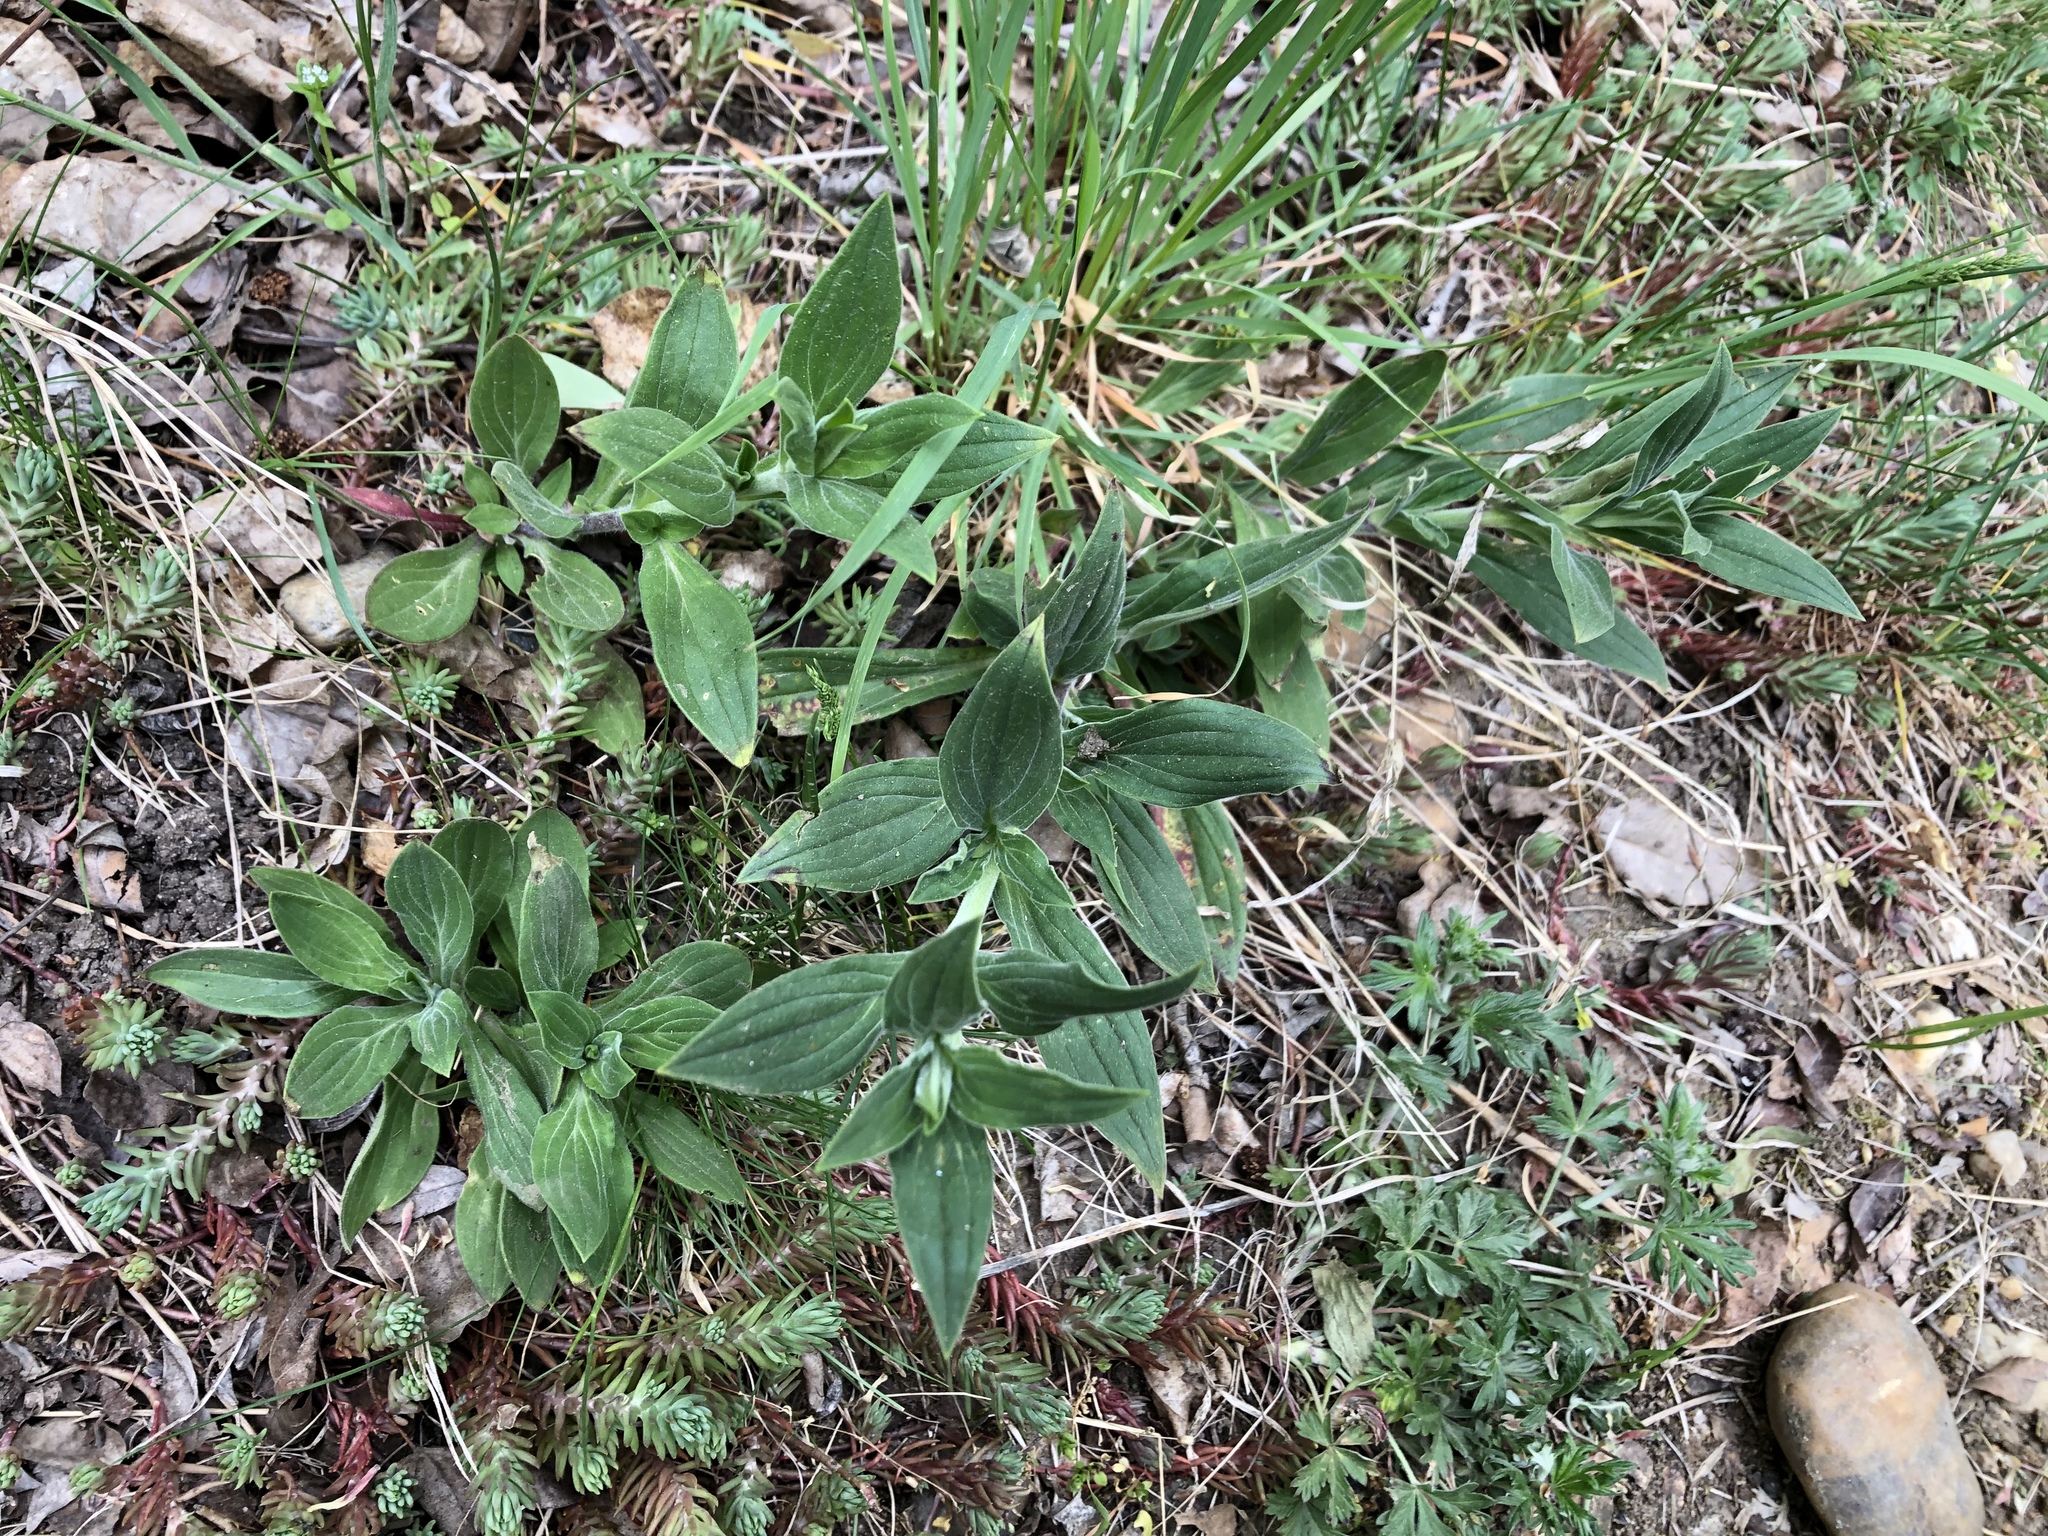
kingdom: Plantae
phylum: Tracheophyta
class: Magnoliopsida
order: Caryophyllales
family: Caryophyllaceae
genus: Silene
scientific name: Silene latifolia
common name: White campion
